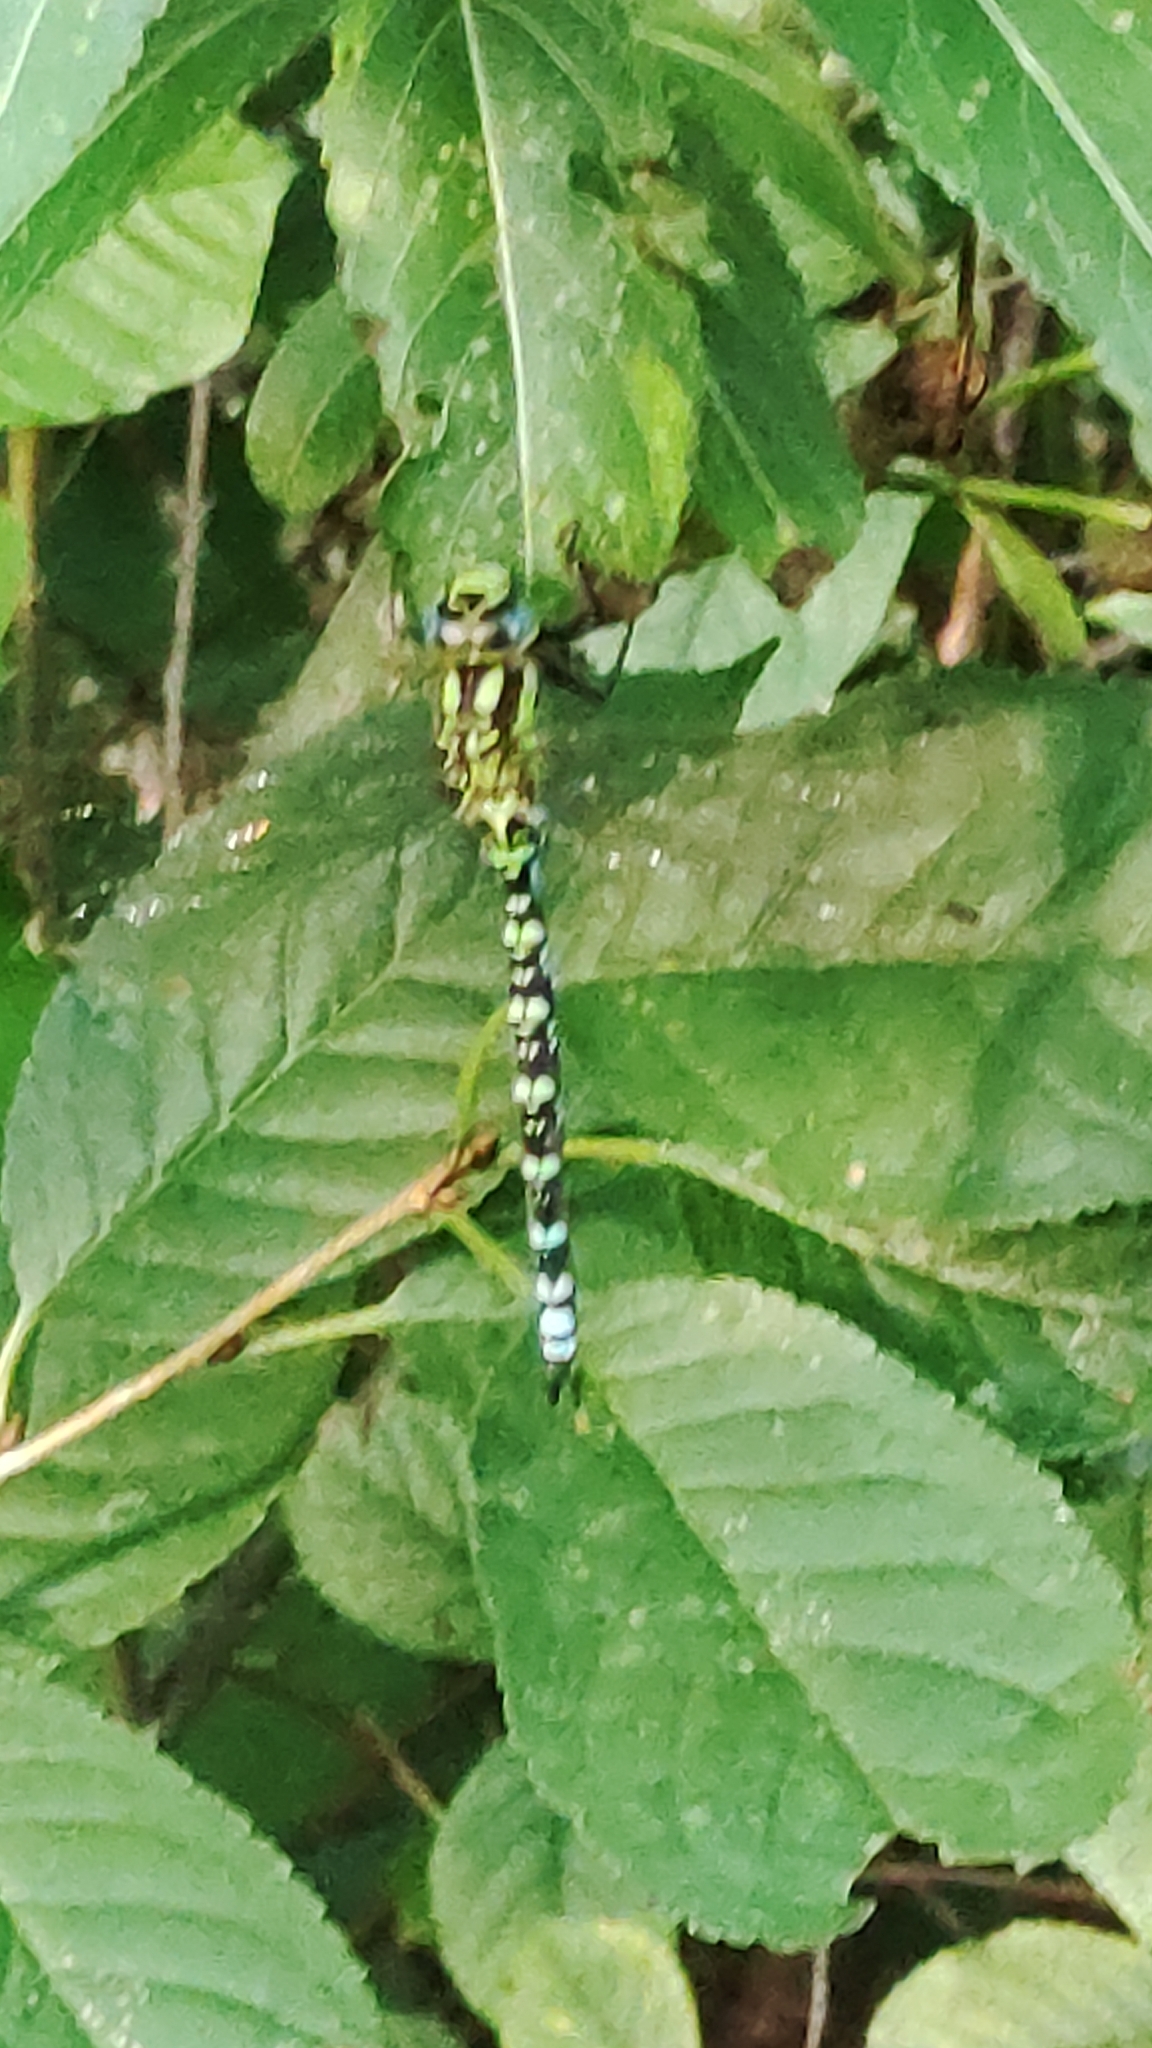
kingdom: Animalia
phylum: Arthropoda
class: Insecta
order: Odonata
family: Aeshnidae
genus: Aeshna
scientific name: Aeshna cyanea
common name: Southern hawker
